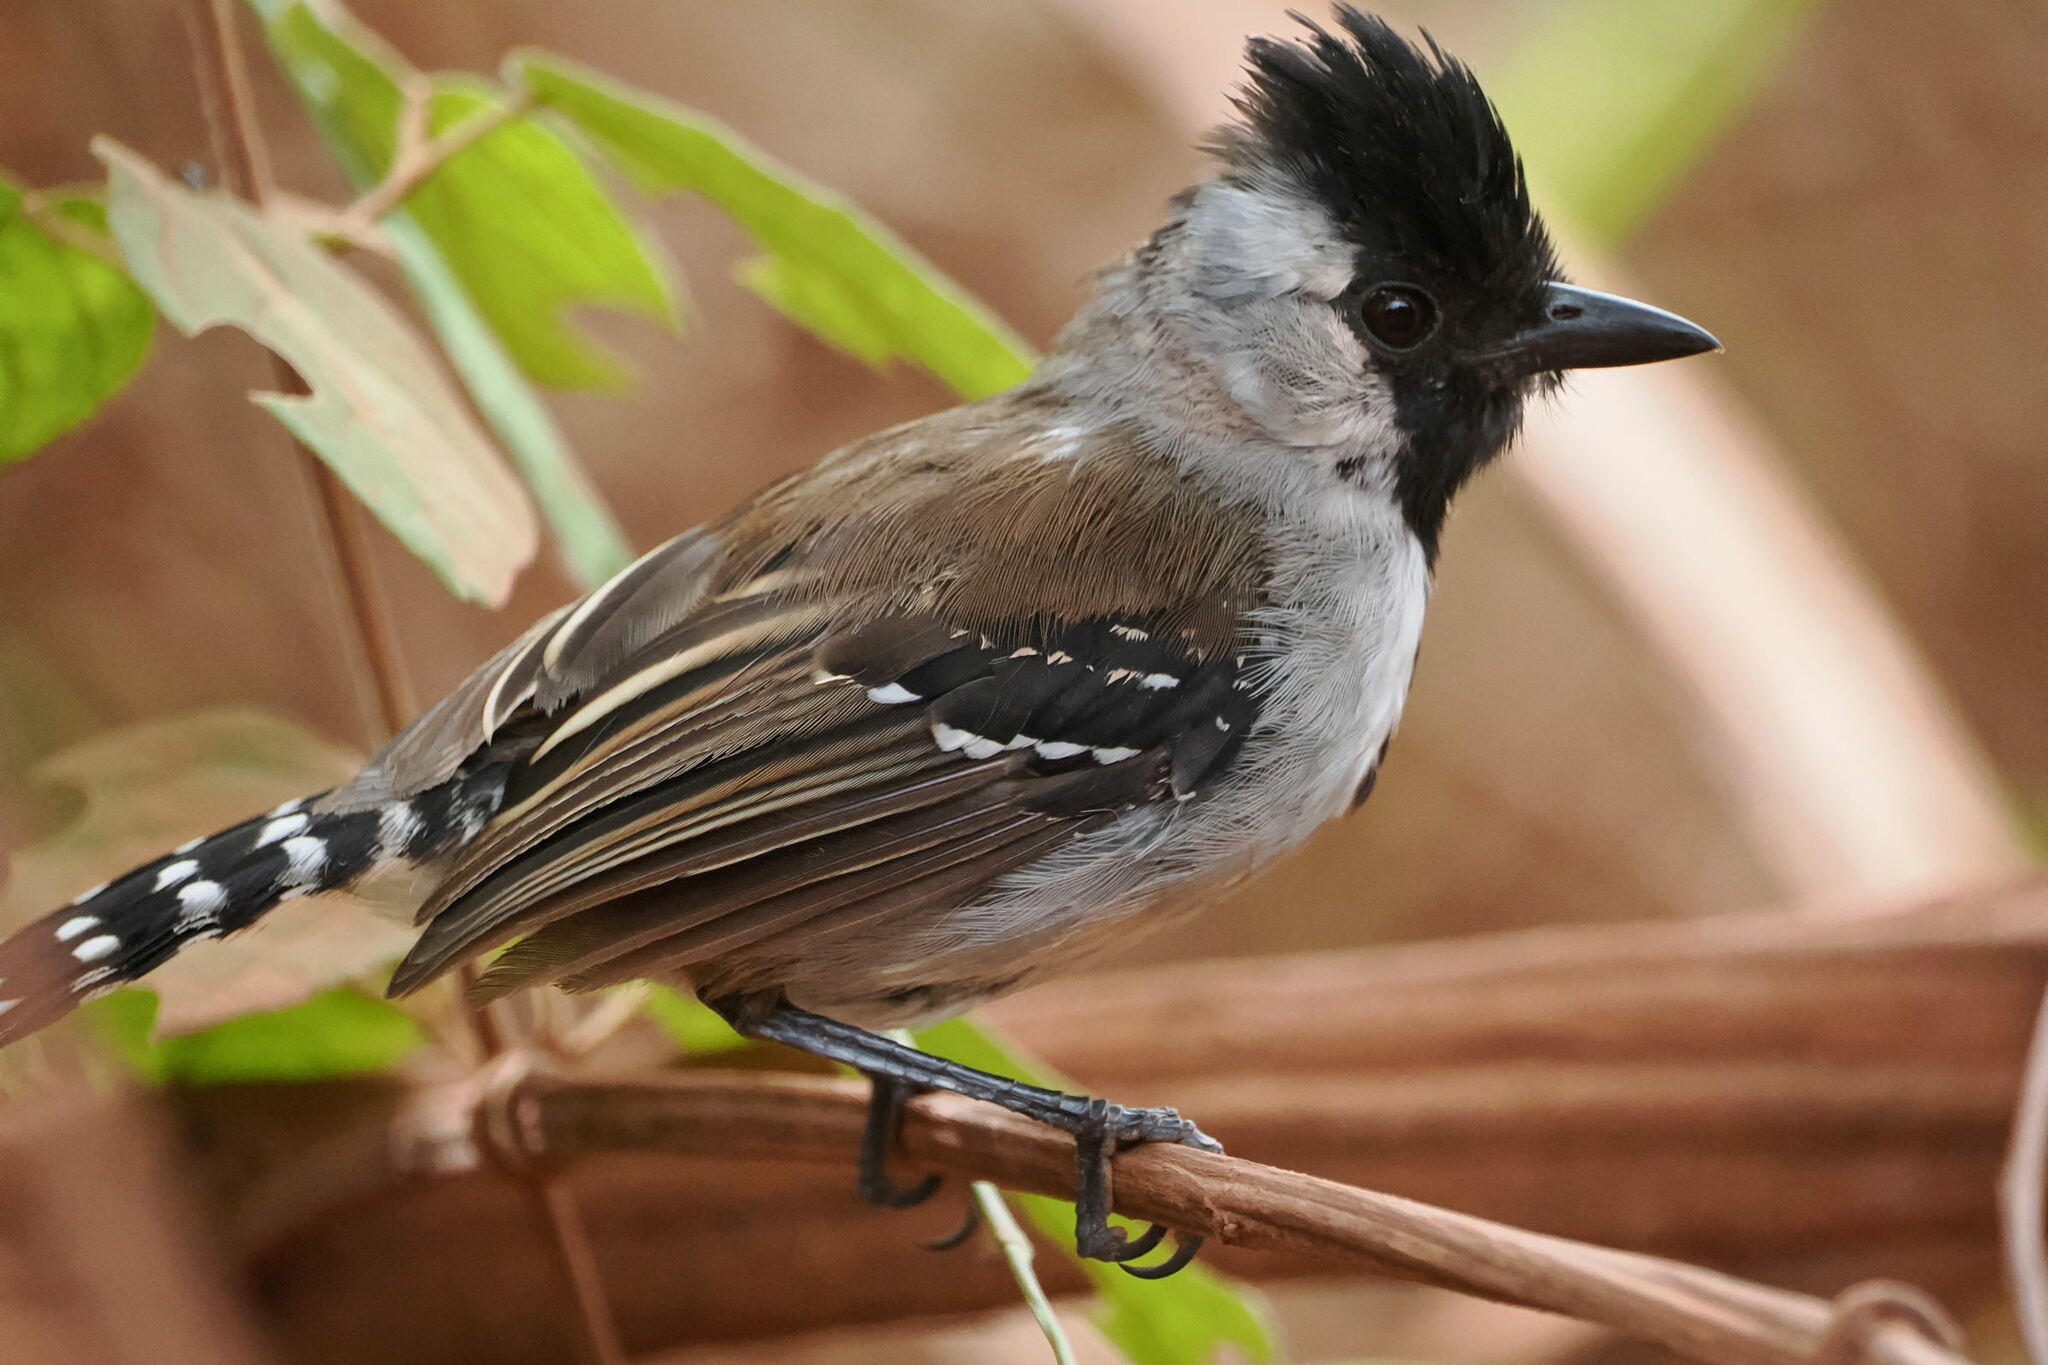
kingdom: Animalia
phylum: Chordata
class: Aves
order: Passeriformes
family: Thamnophilidae
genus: Sakesphorus
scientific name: Sakesphorus cristatus
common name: Silvery-cheeked antshrike
